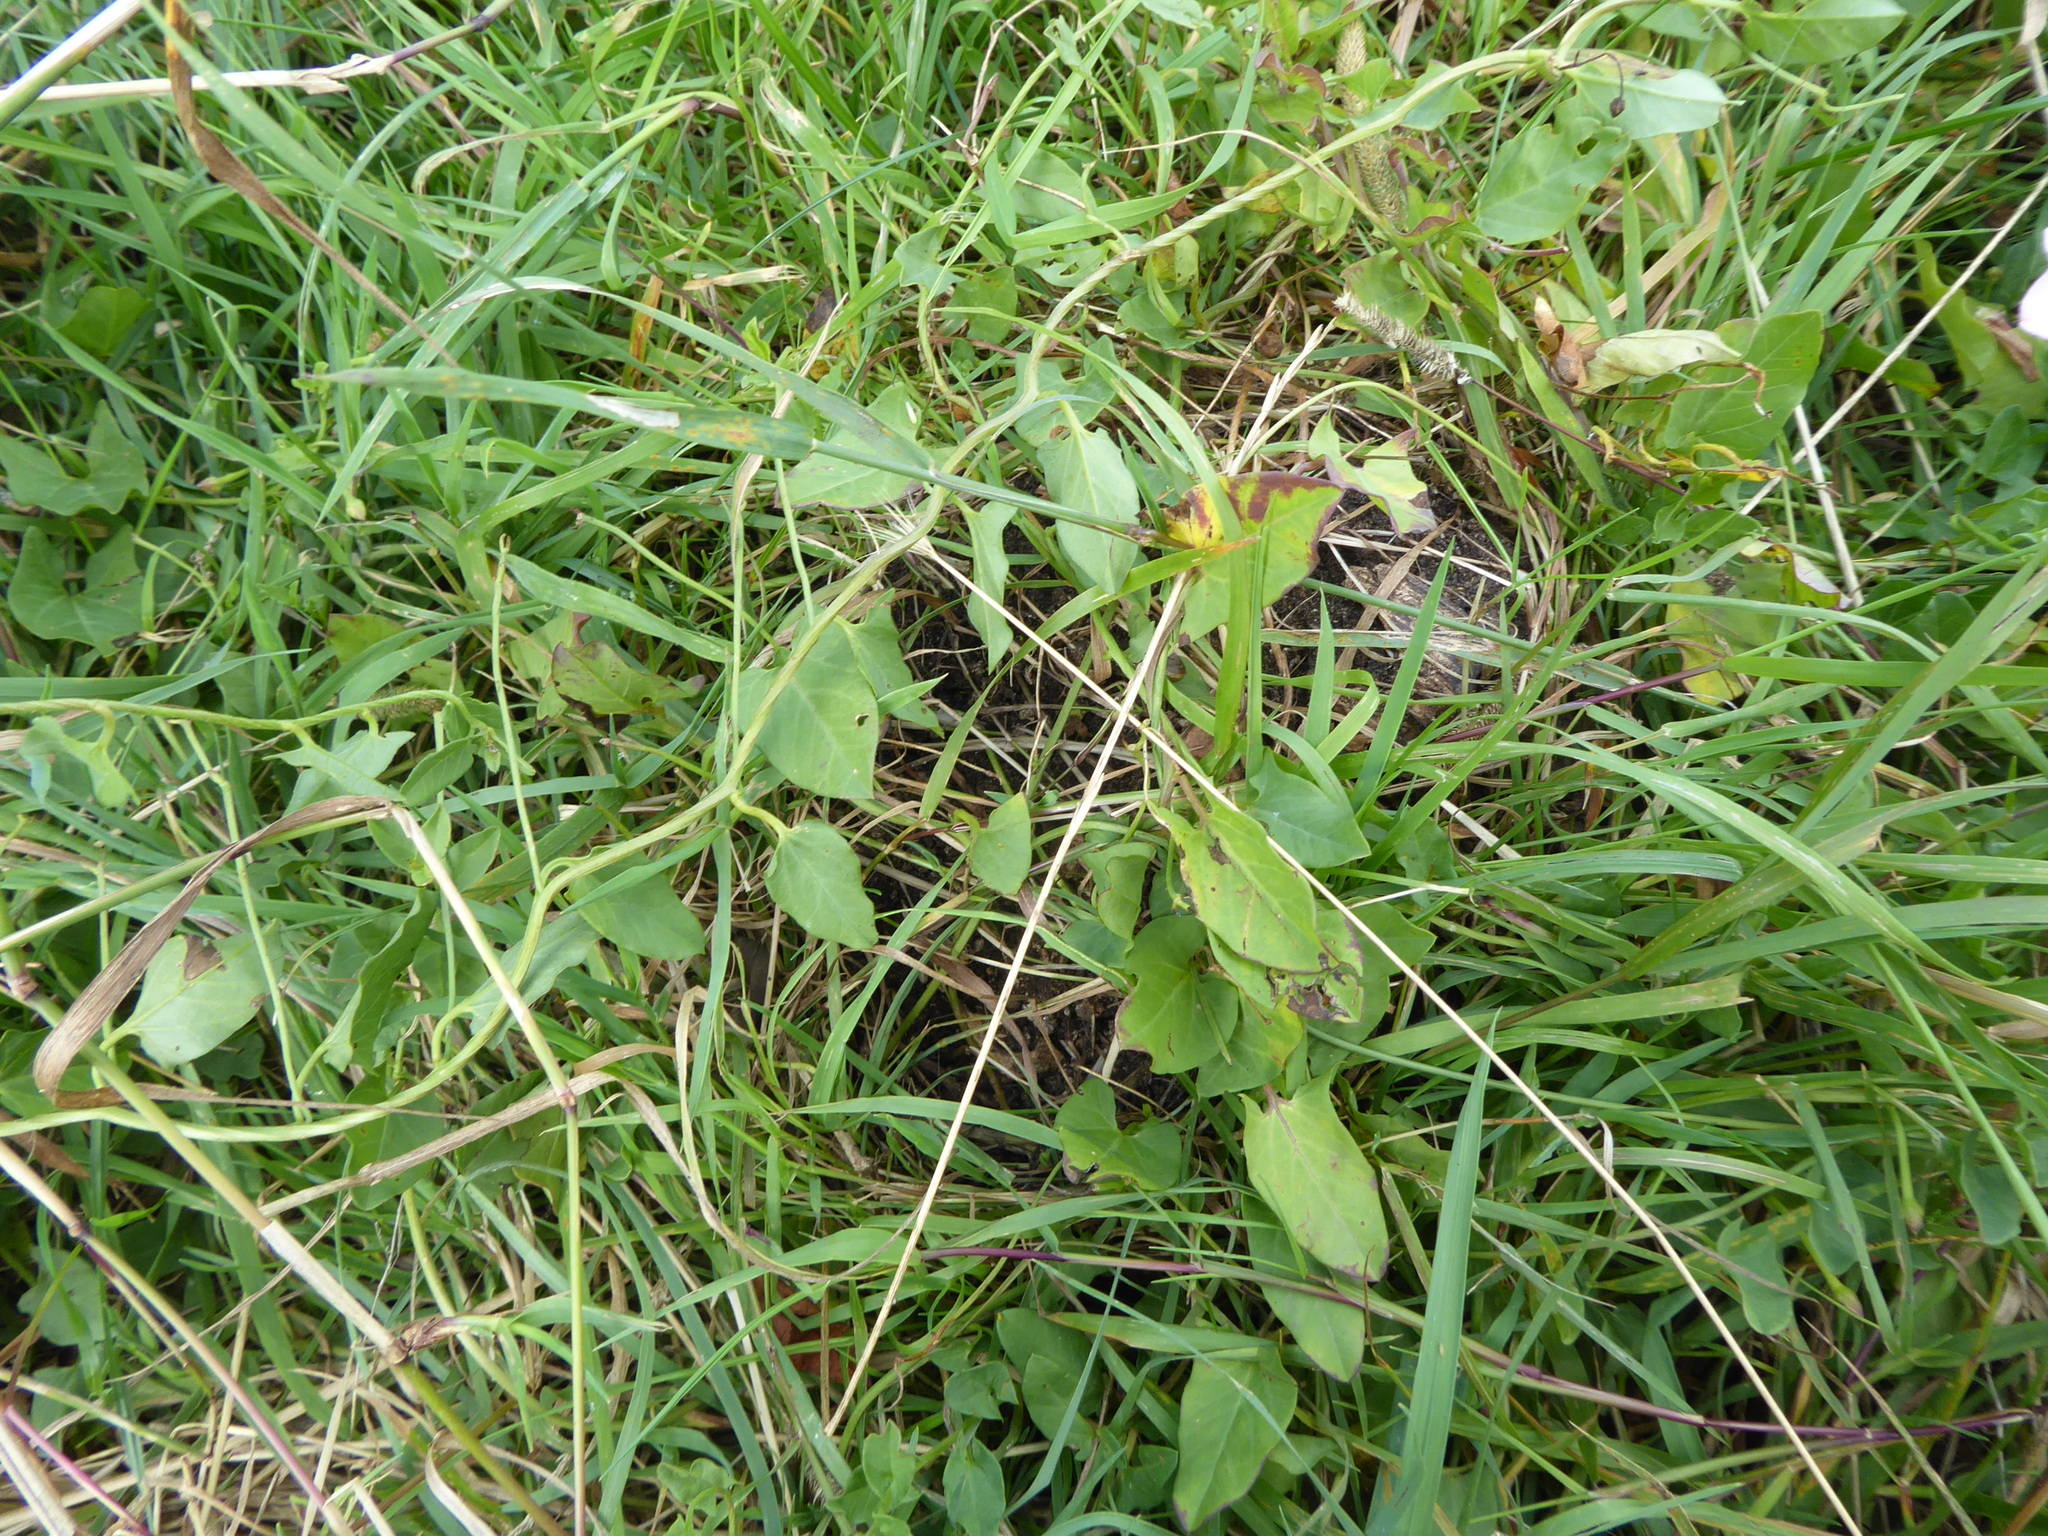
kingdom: Plantae
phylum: Tracheophyta
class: Magnoliopsida
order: Solanales
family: Convolvulaceae
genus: Convolvulus
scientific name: Convolvulus arvensis
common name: Field bindweed
